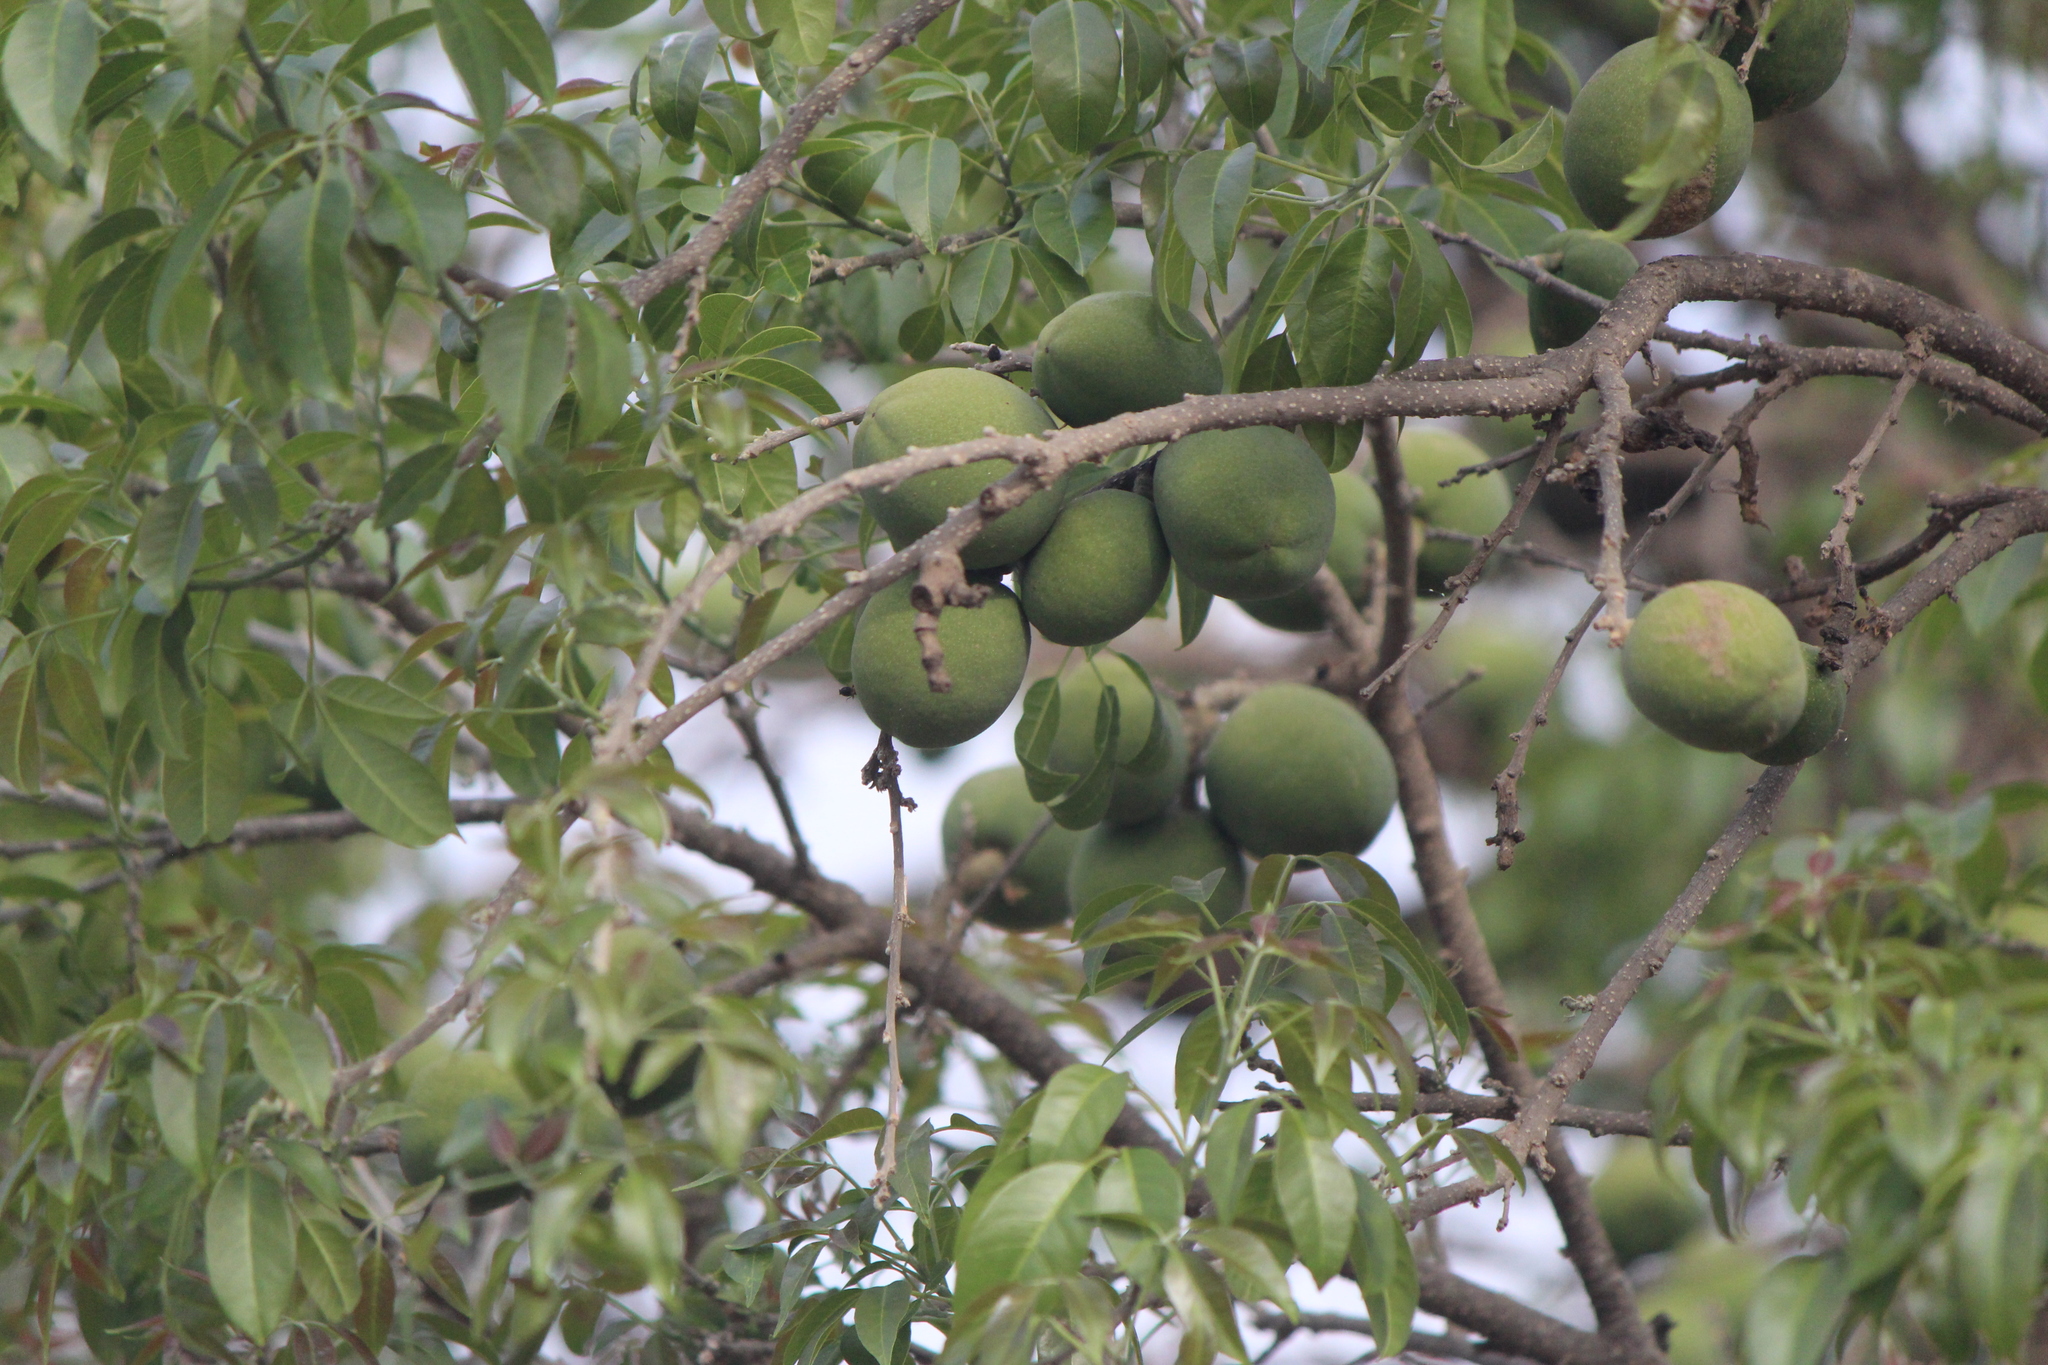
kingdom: Plantae
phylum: Tracheophyta
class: Magnoliopsida
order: Sapindales
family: Rutaceae
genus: Casimiroa
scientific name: Casimiroa edulis
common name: Mexican-apple
